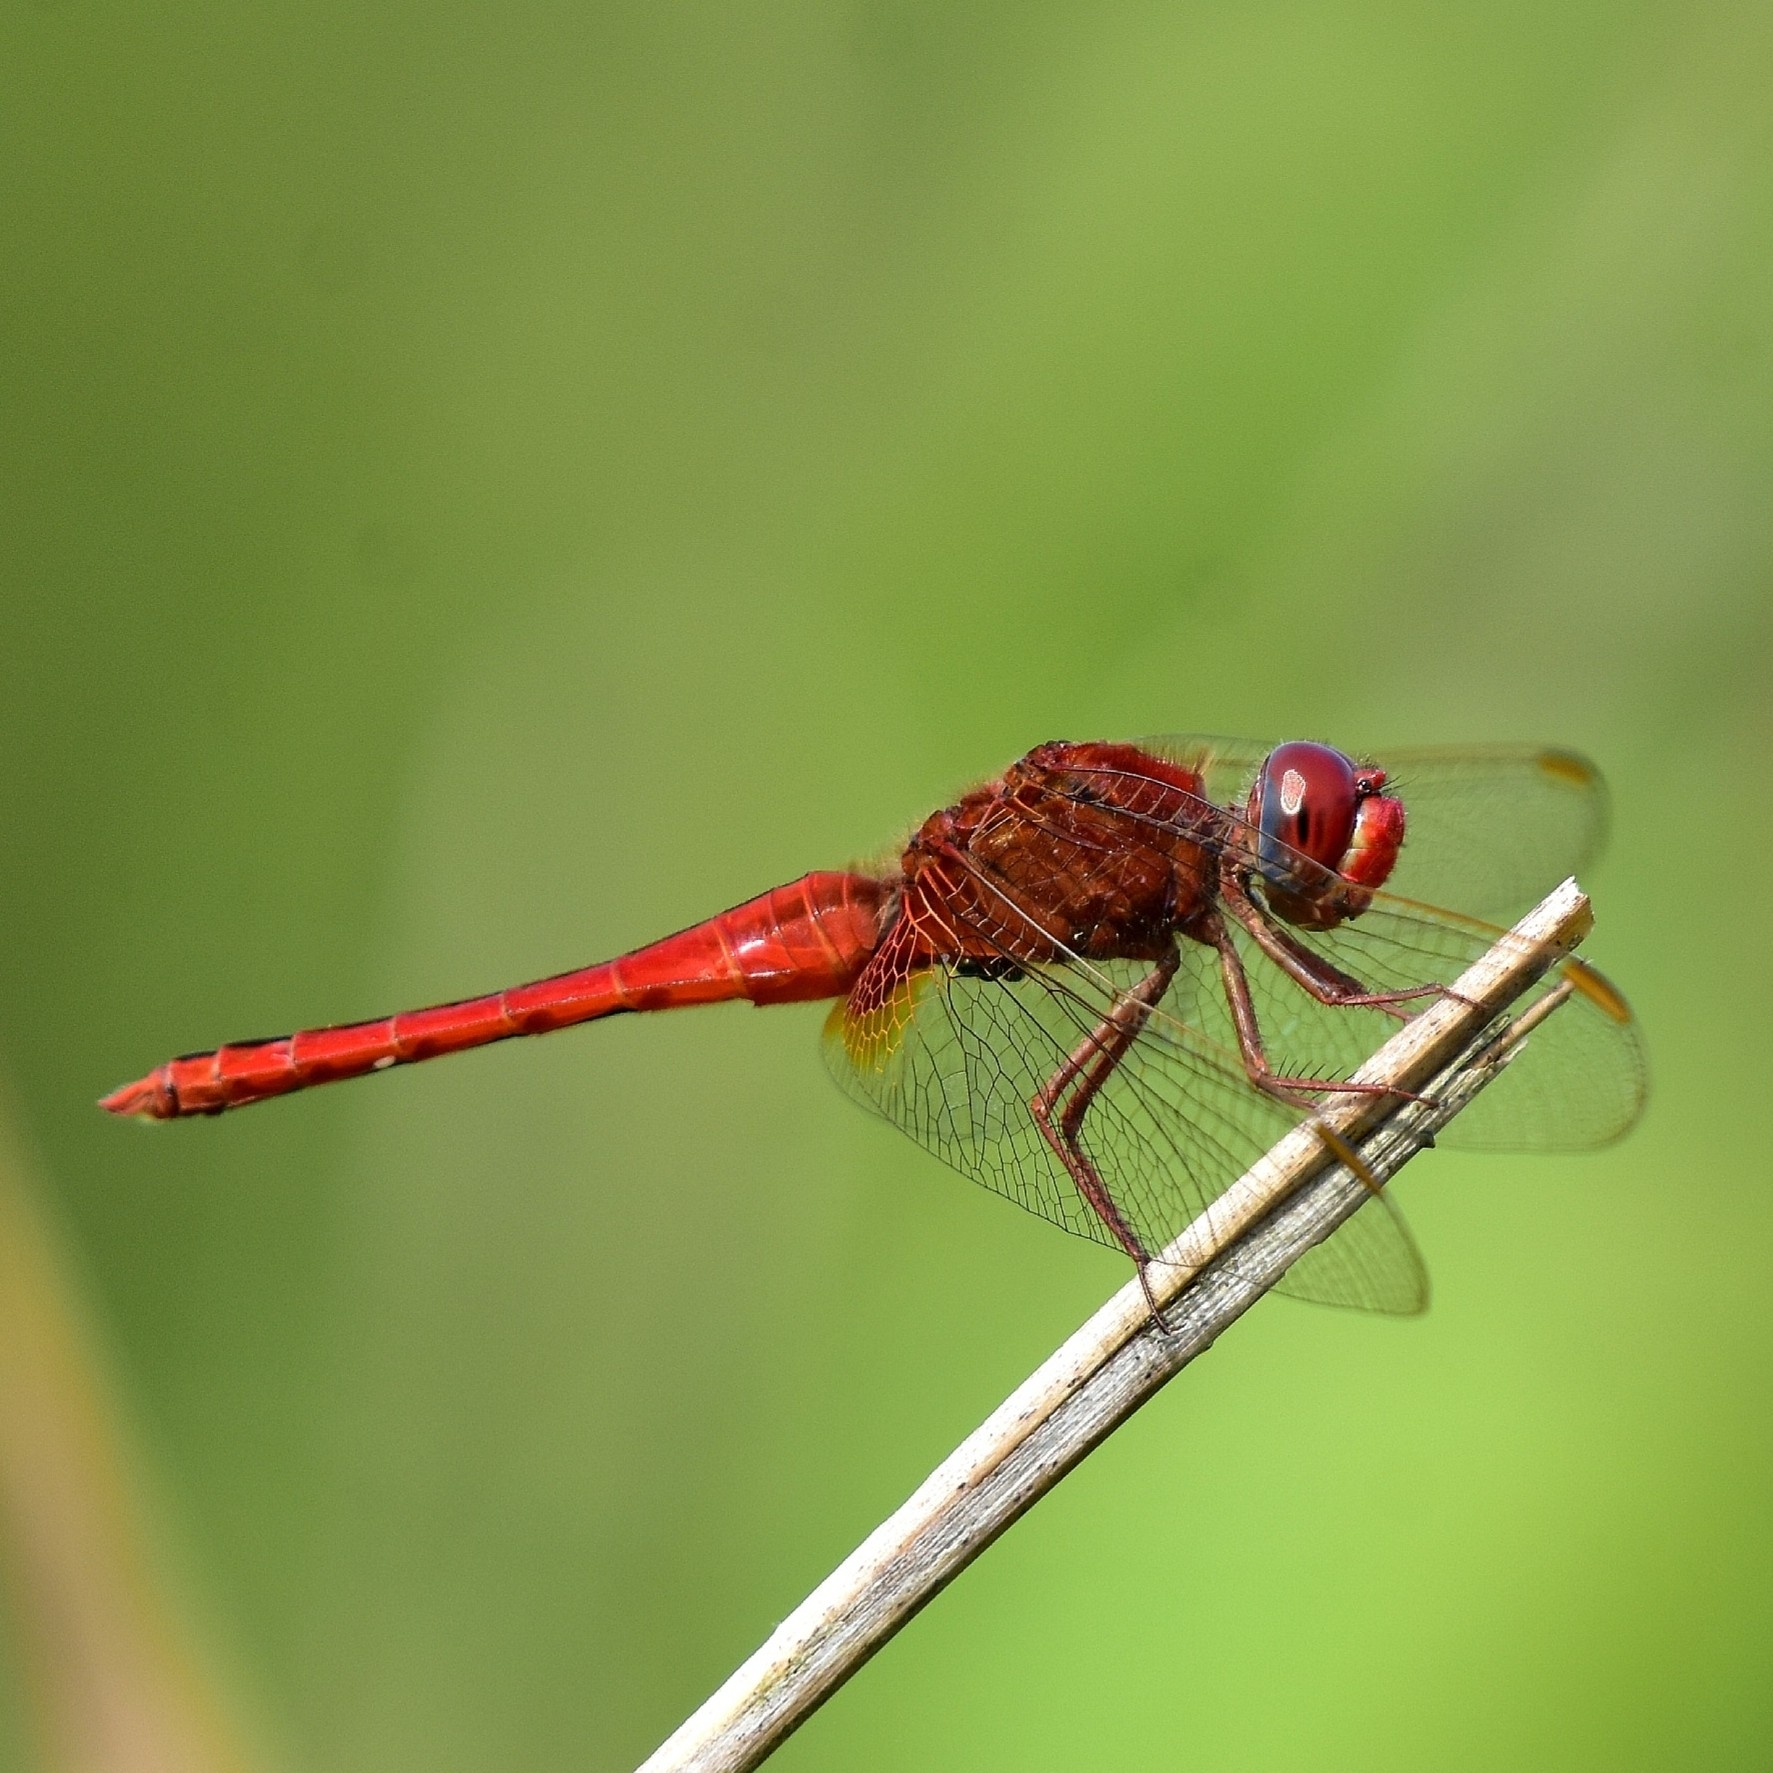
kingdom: Animalia
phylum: Arthropoda
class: Insecta
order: Odonata
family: Libellulidae
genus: Crocothemis
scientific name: Crocothemis servilia
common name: Scarlet skimmer
